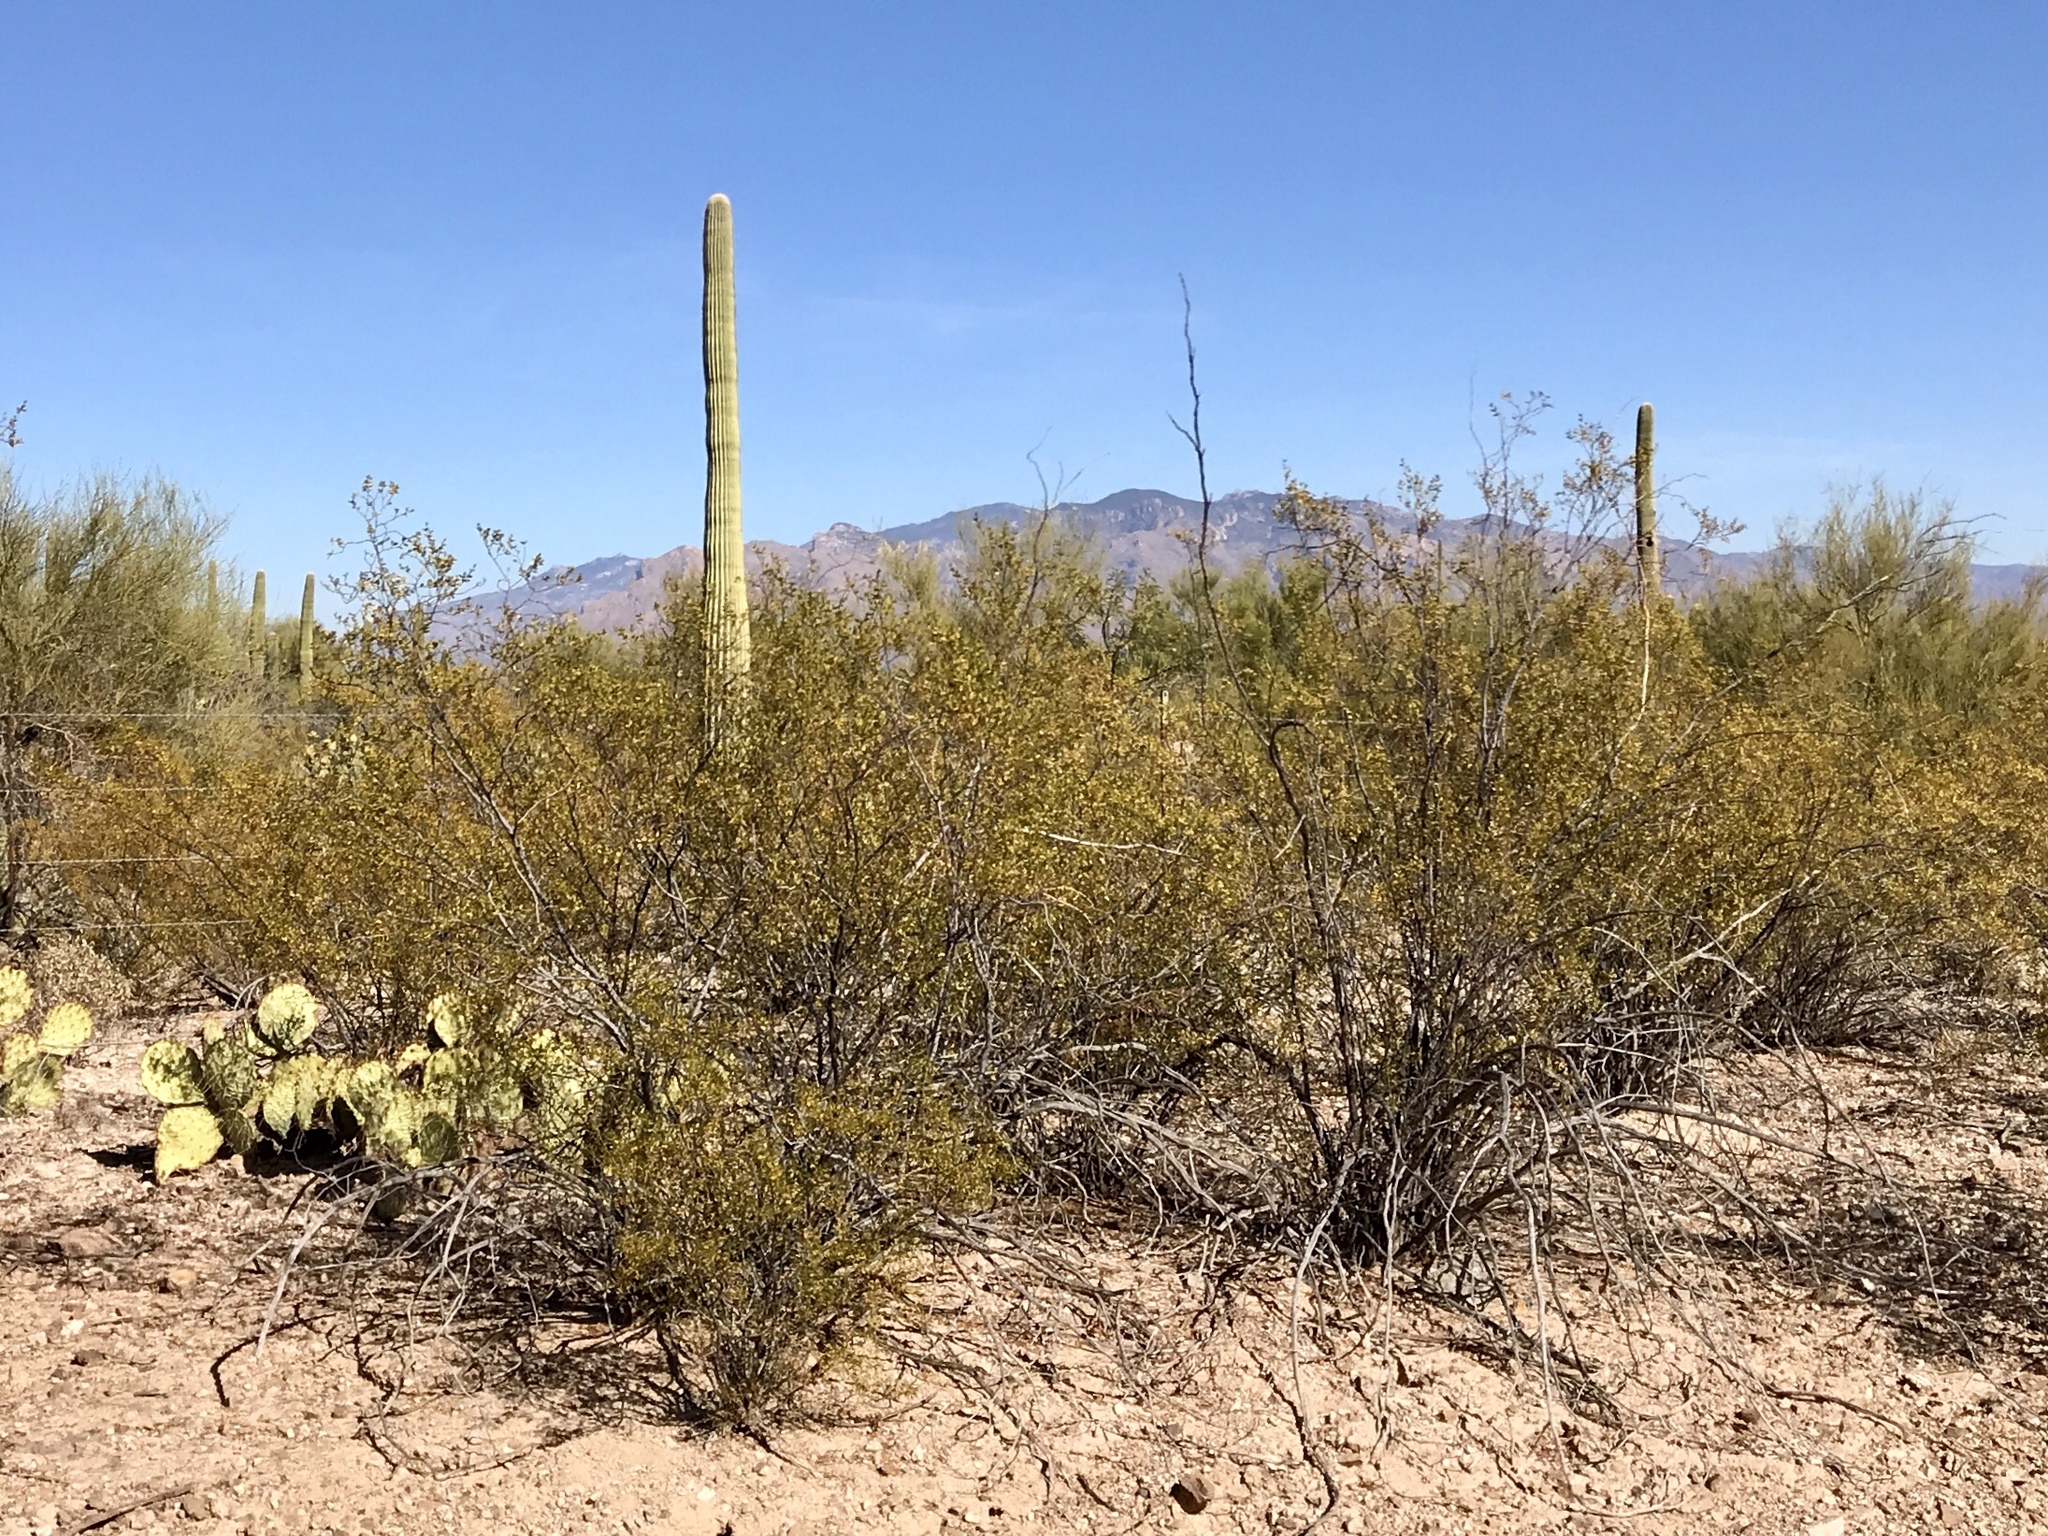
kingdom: Plantae
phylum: Tracheophyta
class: Magnoliopsida
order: Zygophyllales
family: Zygophyllaceae
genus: Larrea
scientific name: Larrea tridentata
